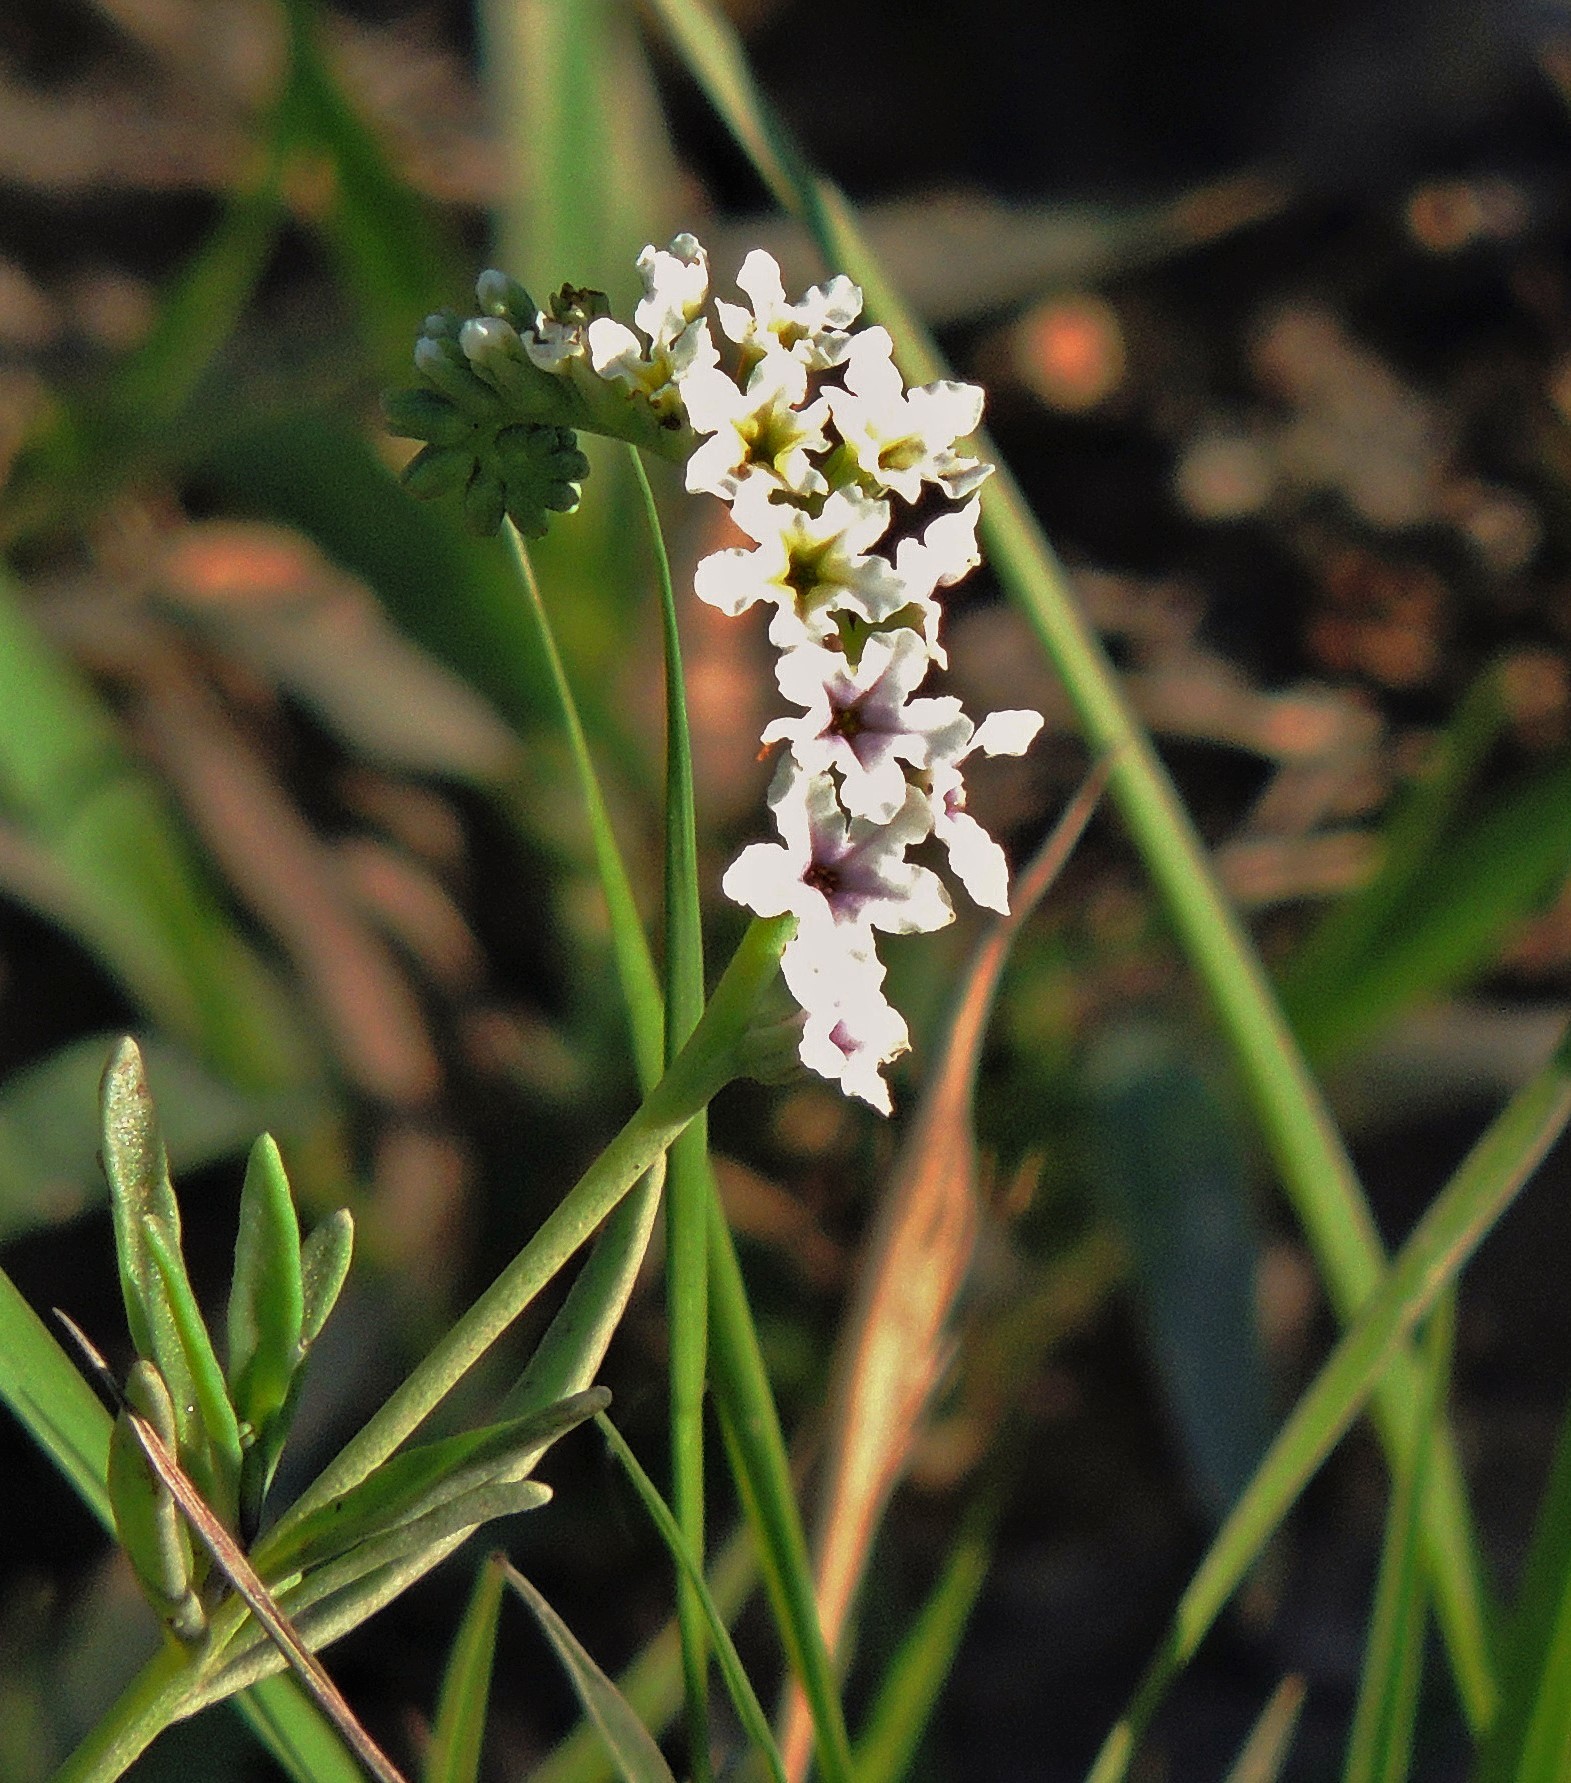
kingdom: Plantae
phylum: Tracheophyta
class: Magnoliopsida
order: Boraginales
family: Heliotropiaceae
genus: Heliotropium
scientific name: Heliotropium curassavicum
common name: Seaside heliotrope
